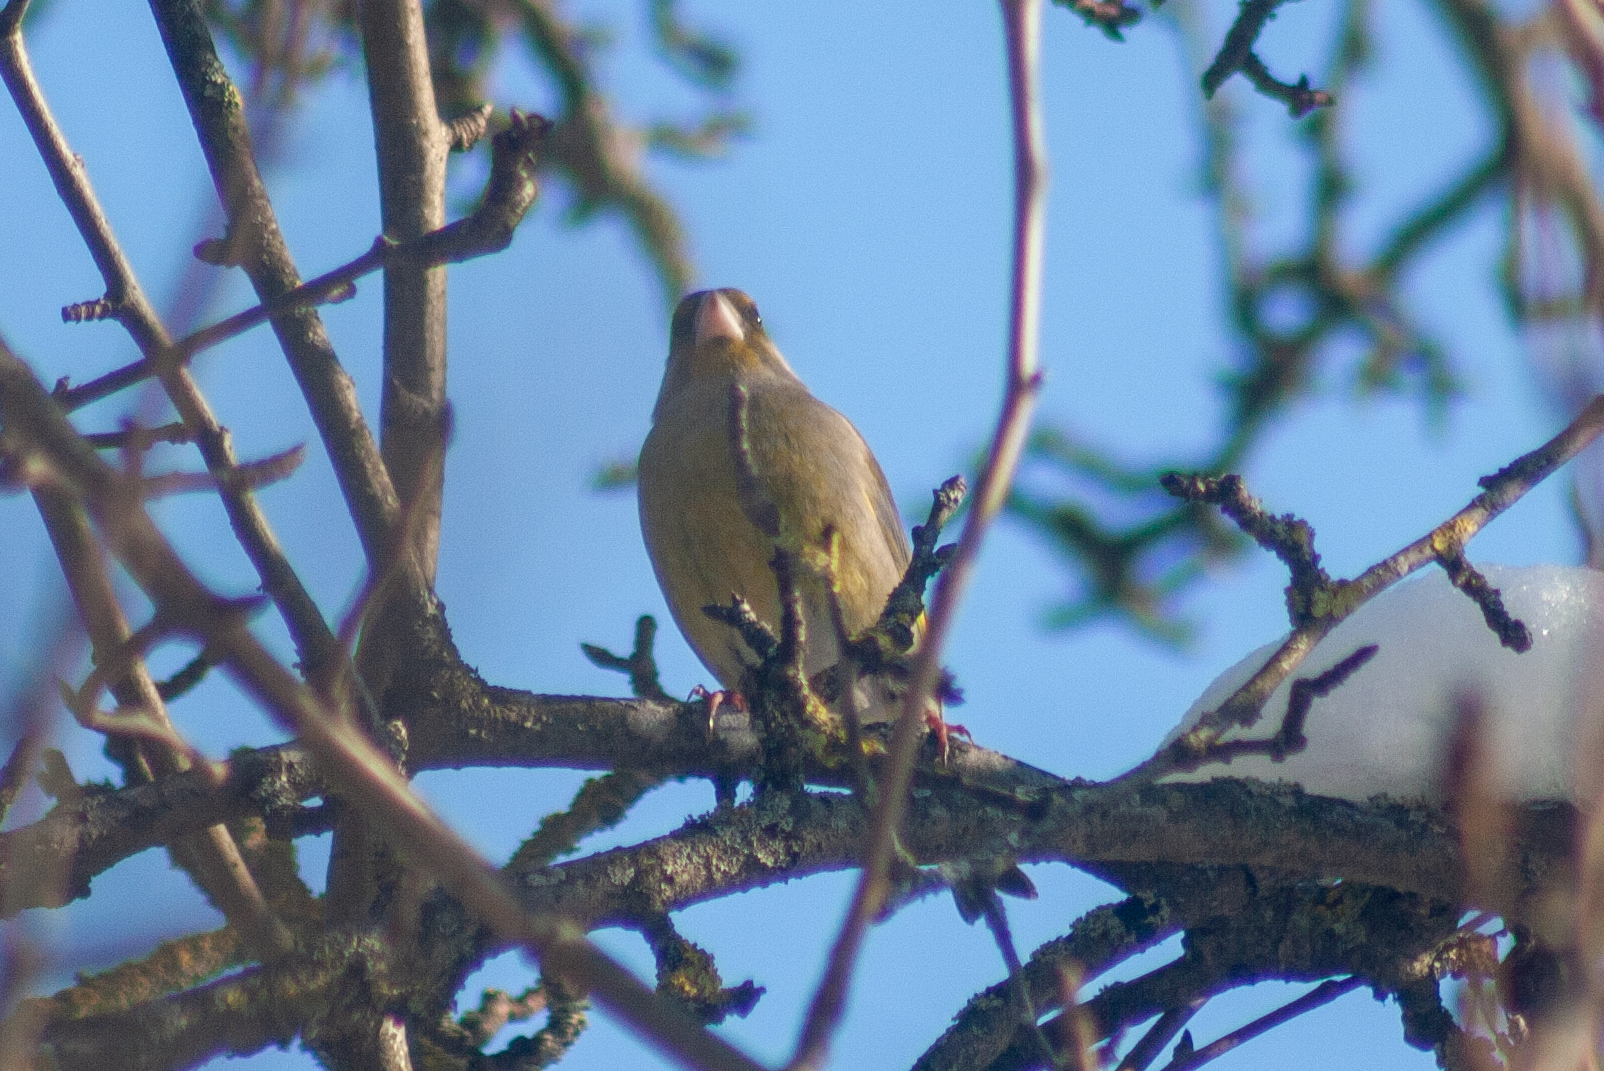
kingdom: Plantae
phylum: Tracheophyta
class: Liliopsida
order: Poales
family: Poaceae
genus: Chloris
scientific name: Chloris chloris
